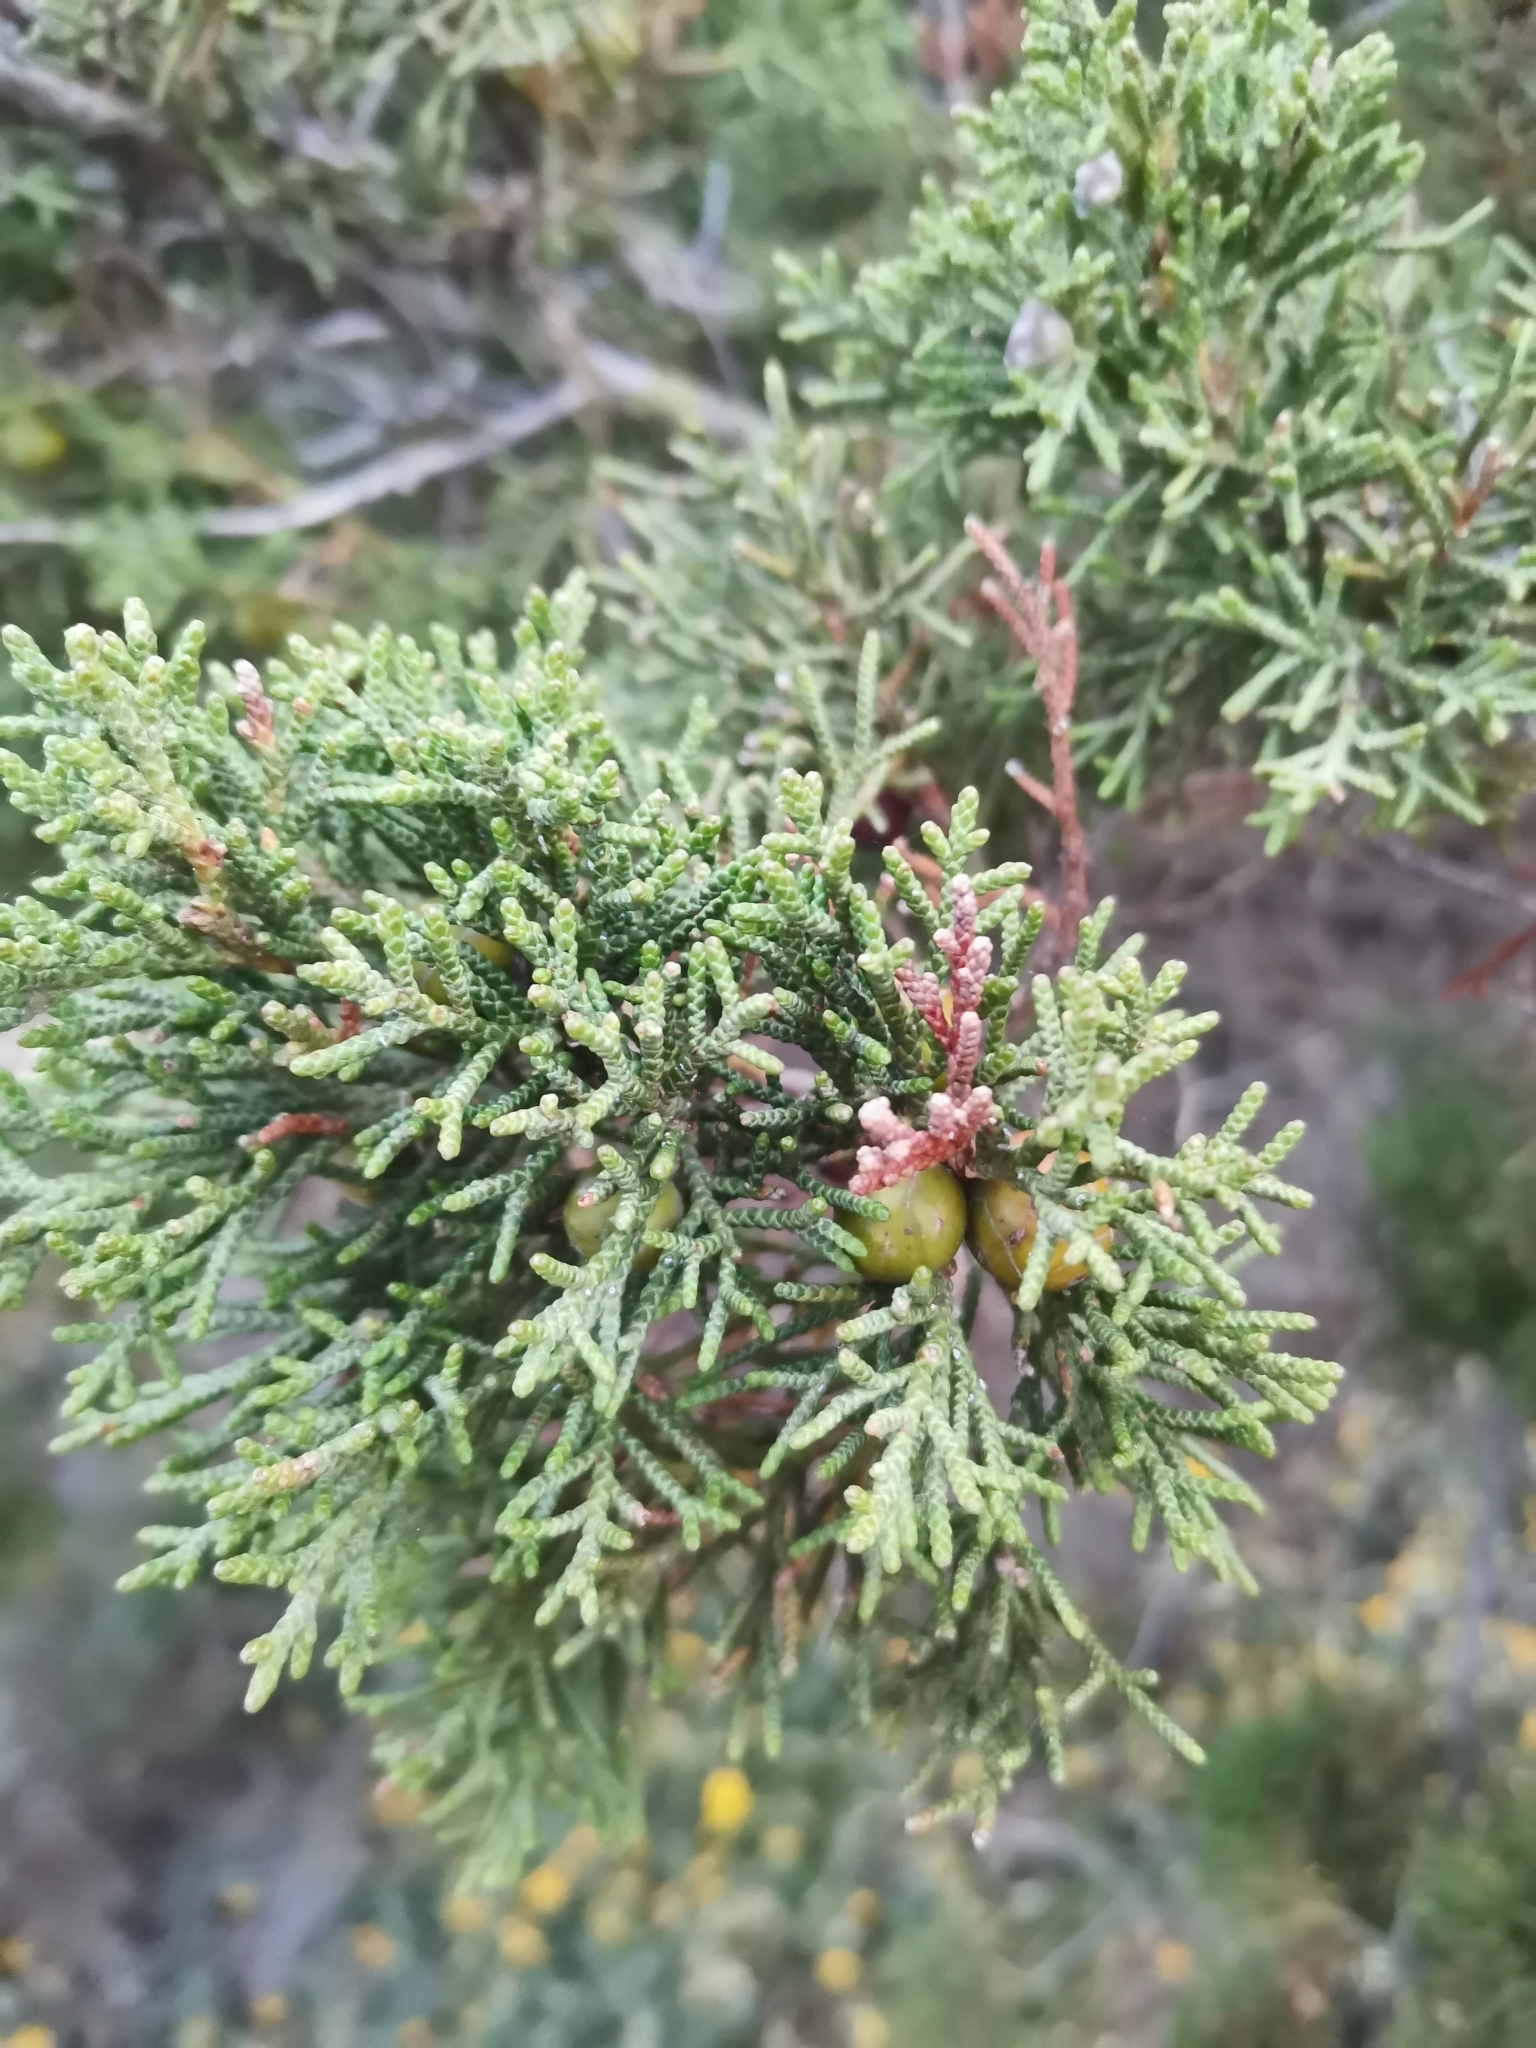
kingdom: Plantae
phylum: Tracheophyta
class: Pinopsida
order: Pinales
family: Cupressaceae
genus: Juniperus
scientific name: Juniperus phoenicea
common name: Phoenician juniper
